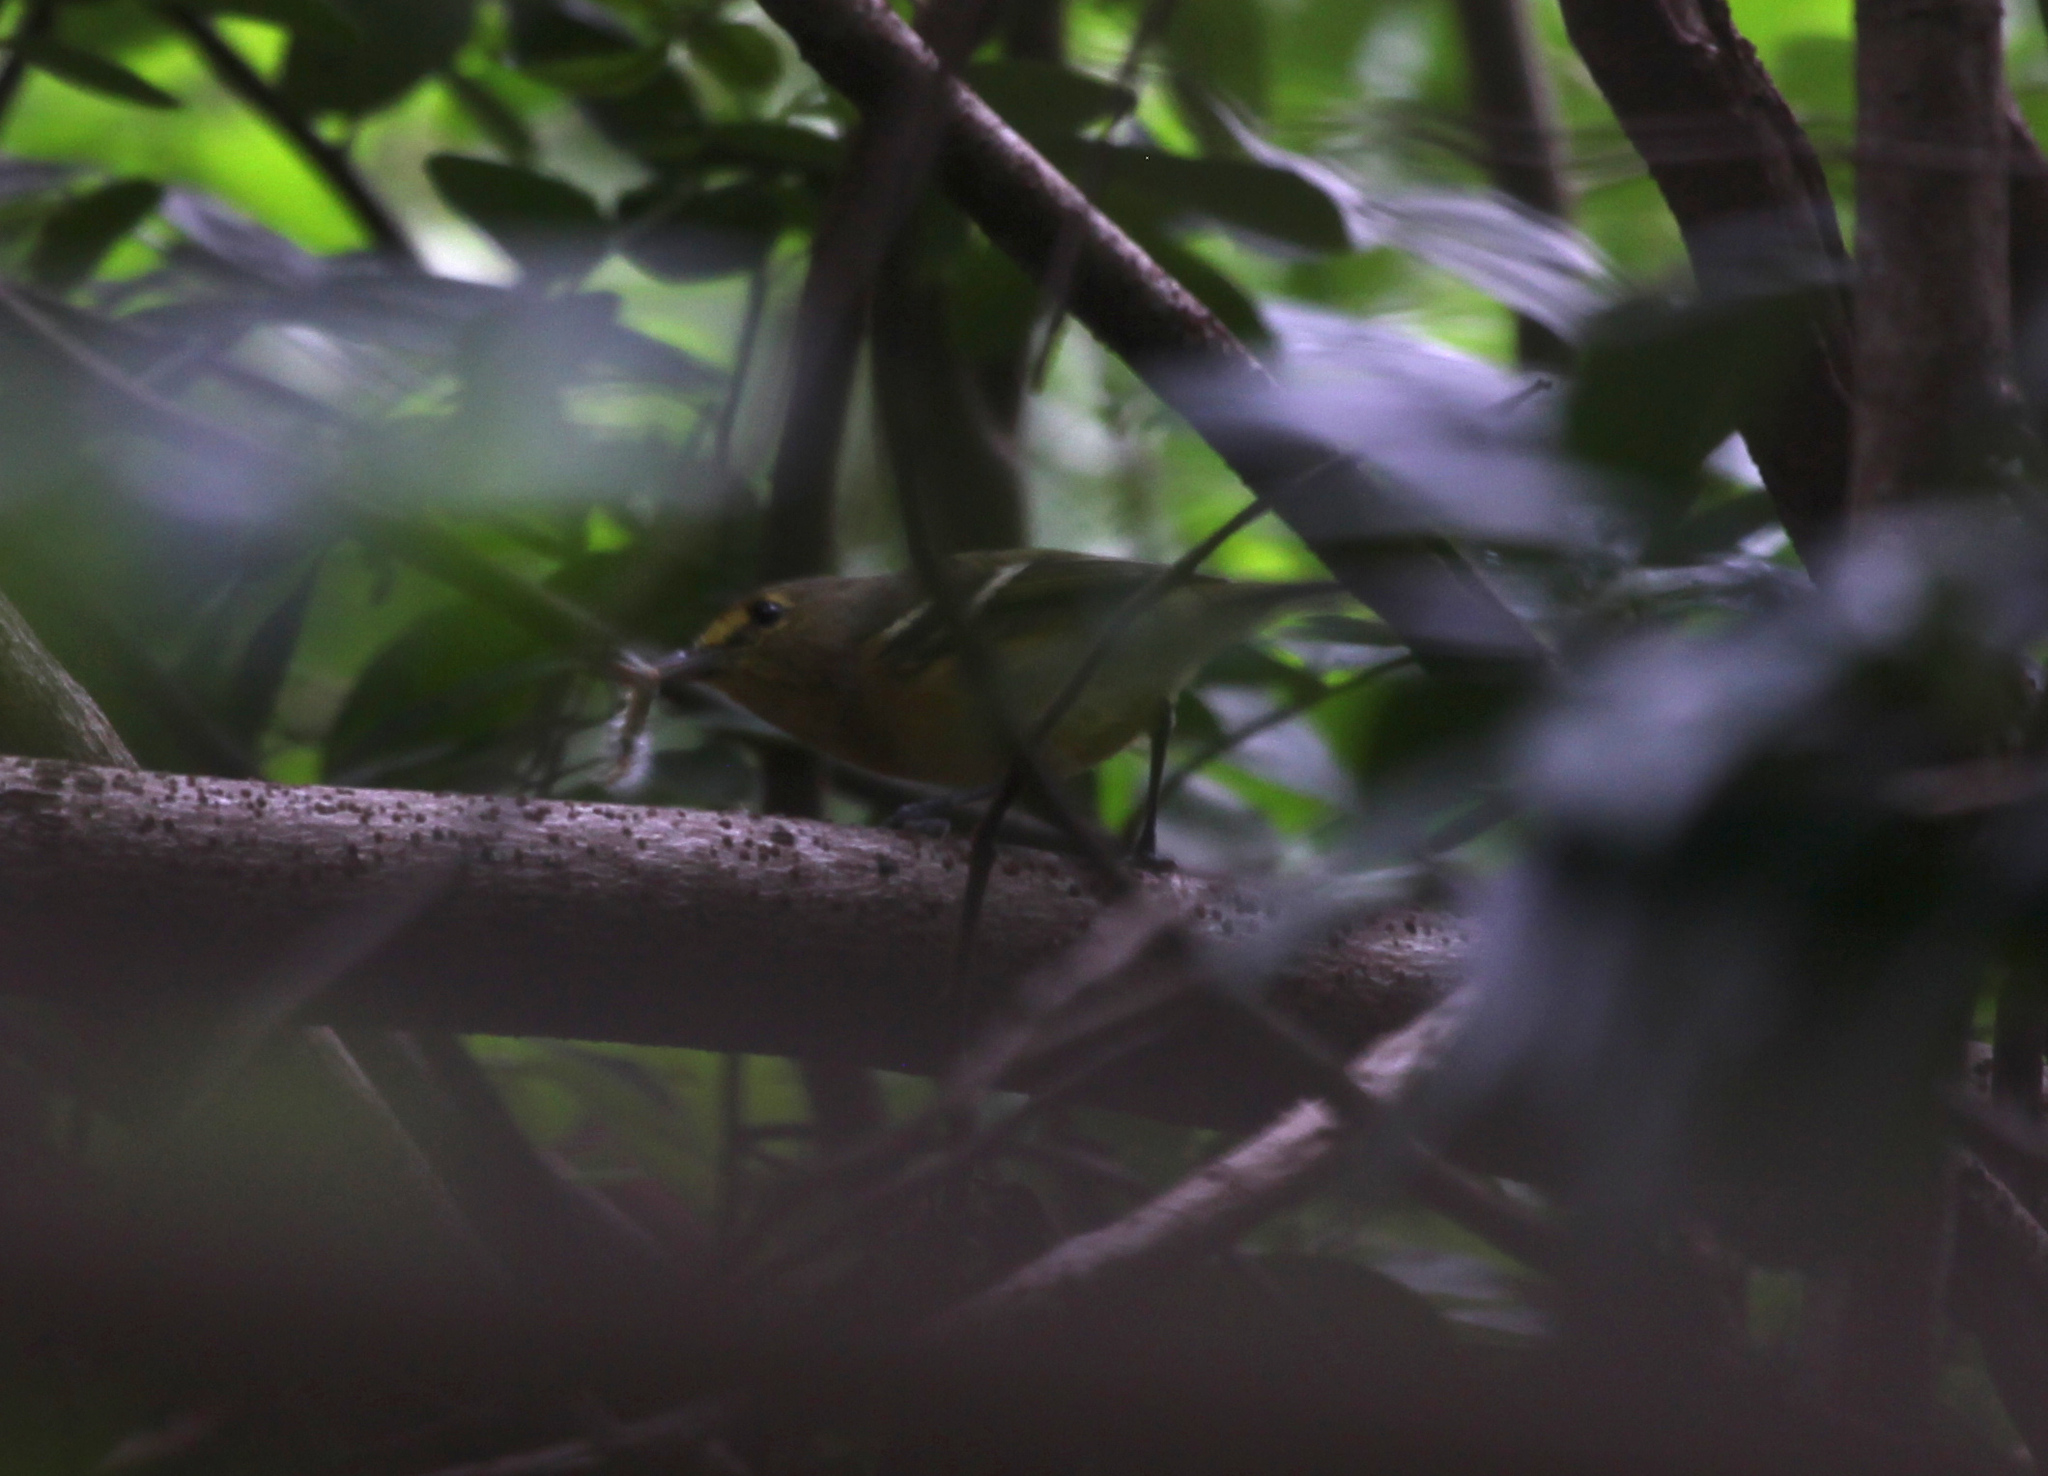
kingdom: Animalia
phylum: Chordata
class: Aves
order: Passeriformes
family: Vireonidae
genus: Vireo
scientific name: Vireo crassirostris
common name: Thick-billed vireo
